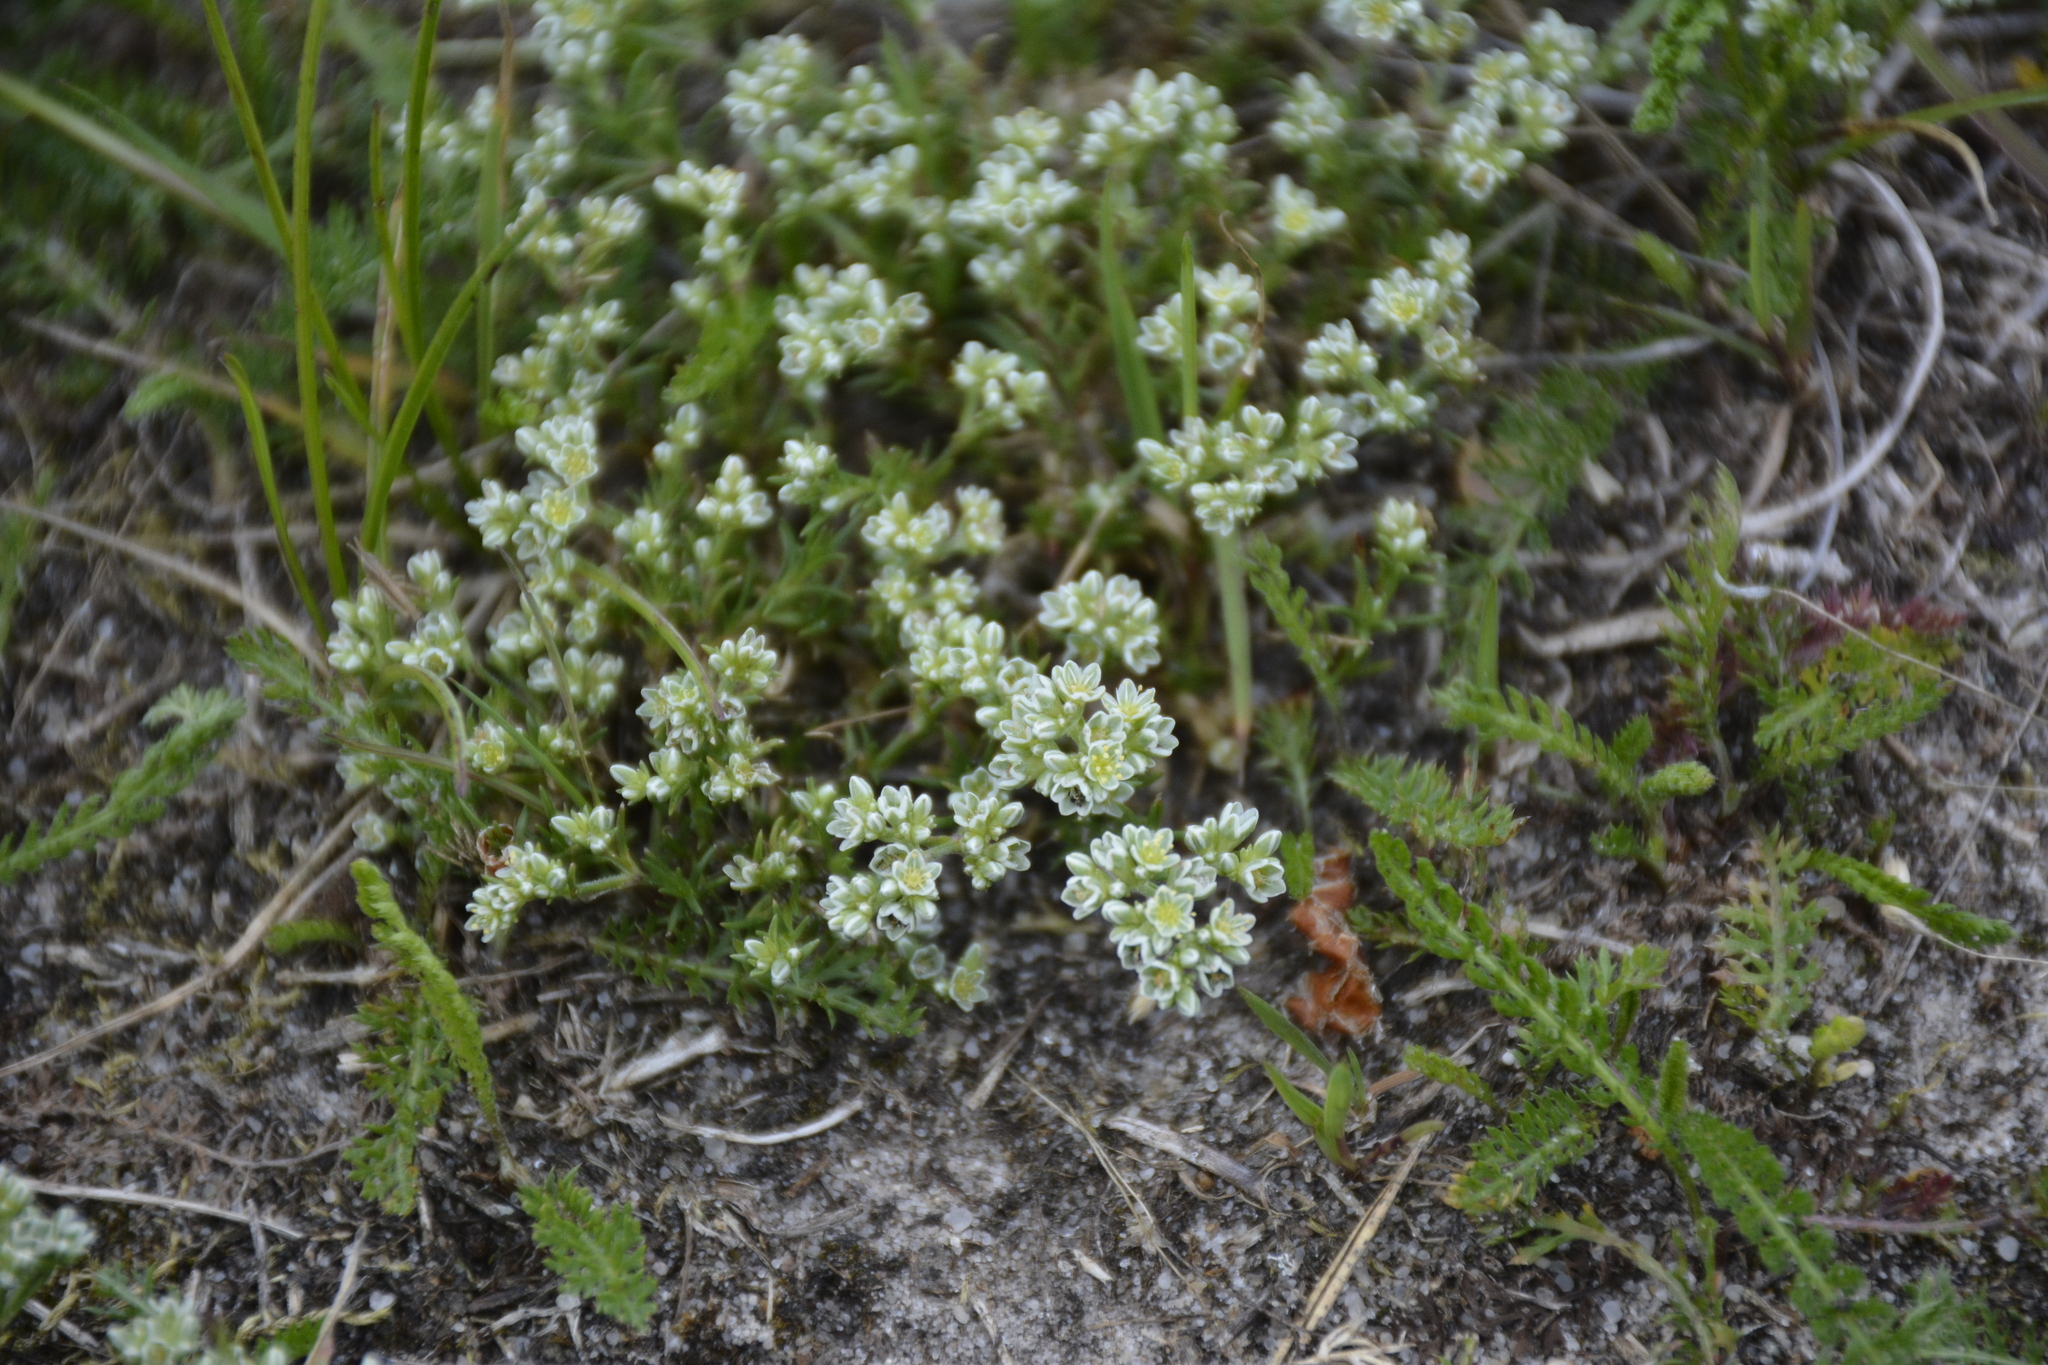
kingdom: Plantae
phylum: Tracheophyta
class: Magnoliopsida
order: Caryophyllales
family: Caryophyllaceae
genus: Scleranthus
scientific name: Scleranthus perennis
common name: Perennial knawel
